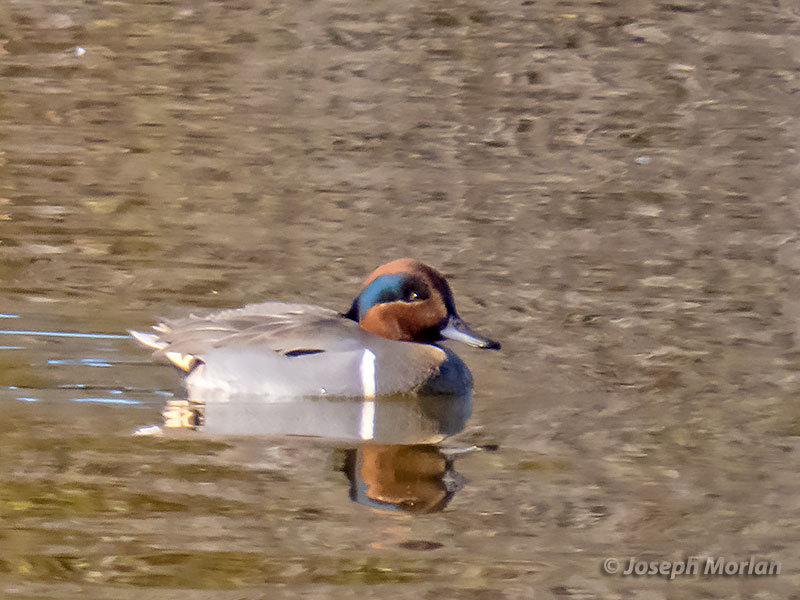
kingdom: Animalia
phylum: Chordata
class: Aves
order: Anseriformes
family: Anatidae
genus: Anas
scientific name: Anas carolinensis
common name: Green-winged teal
